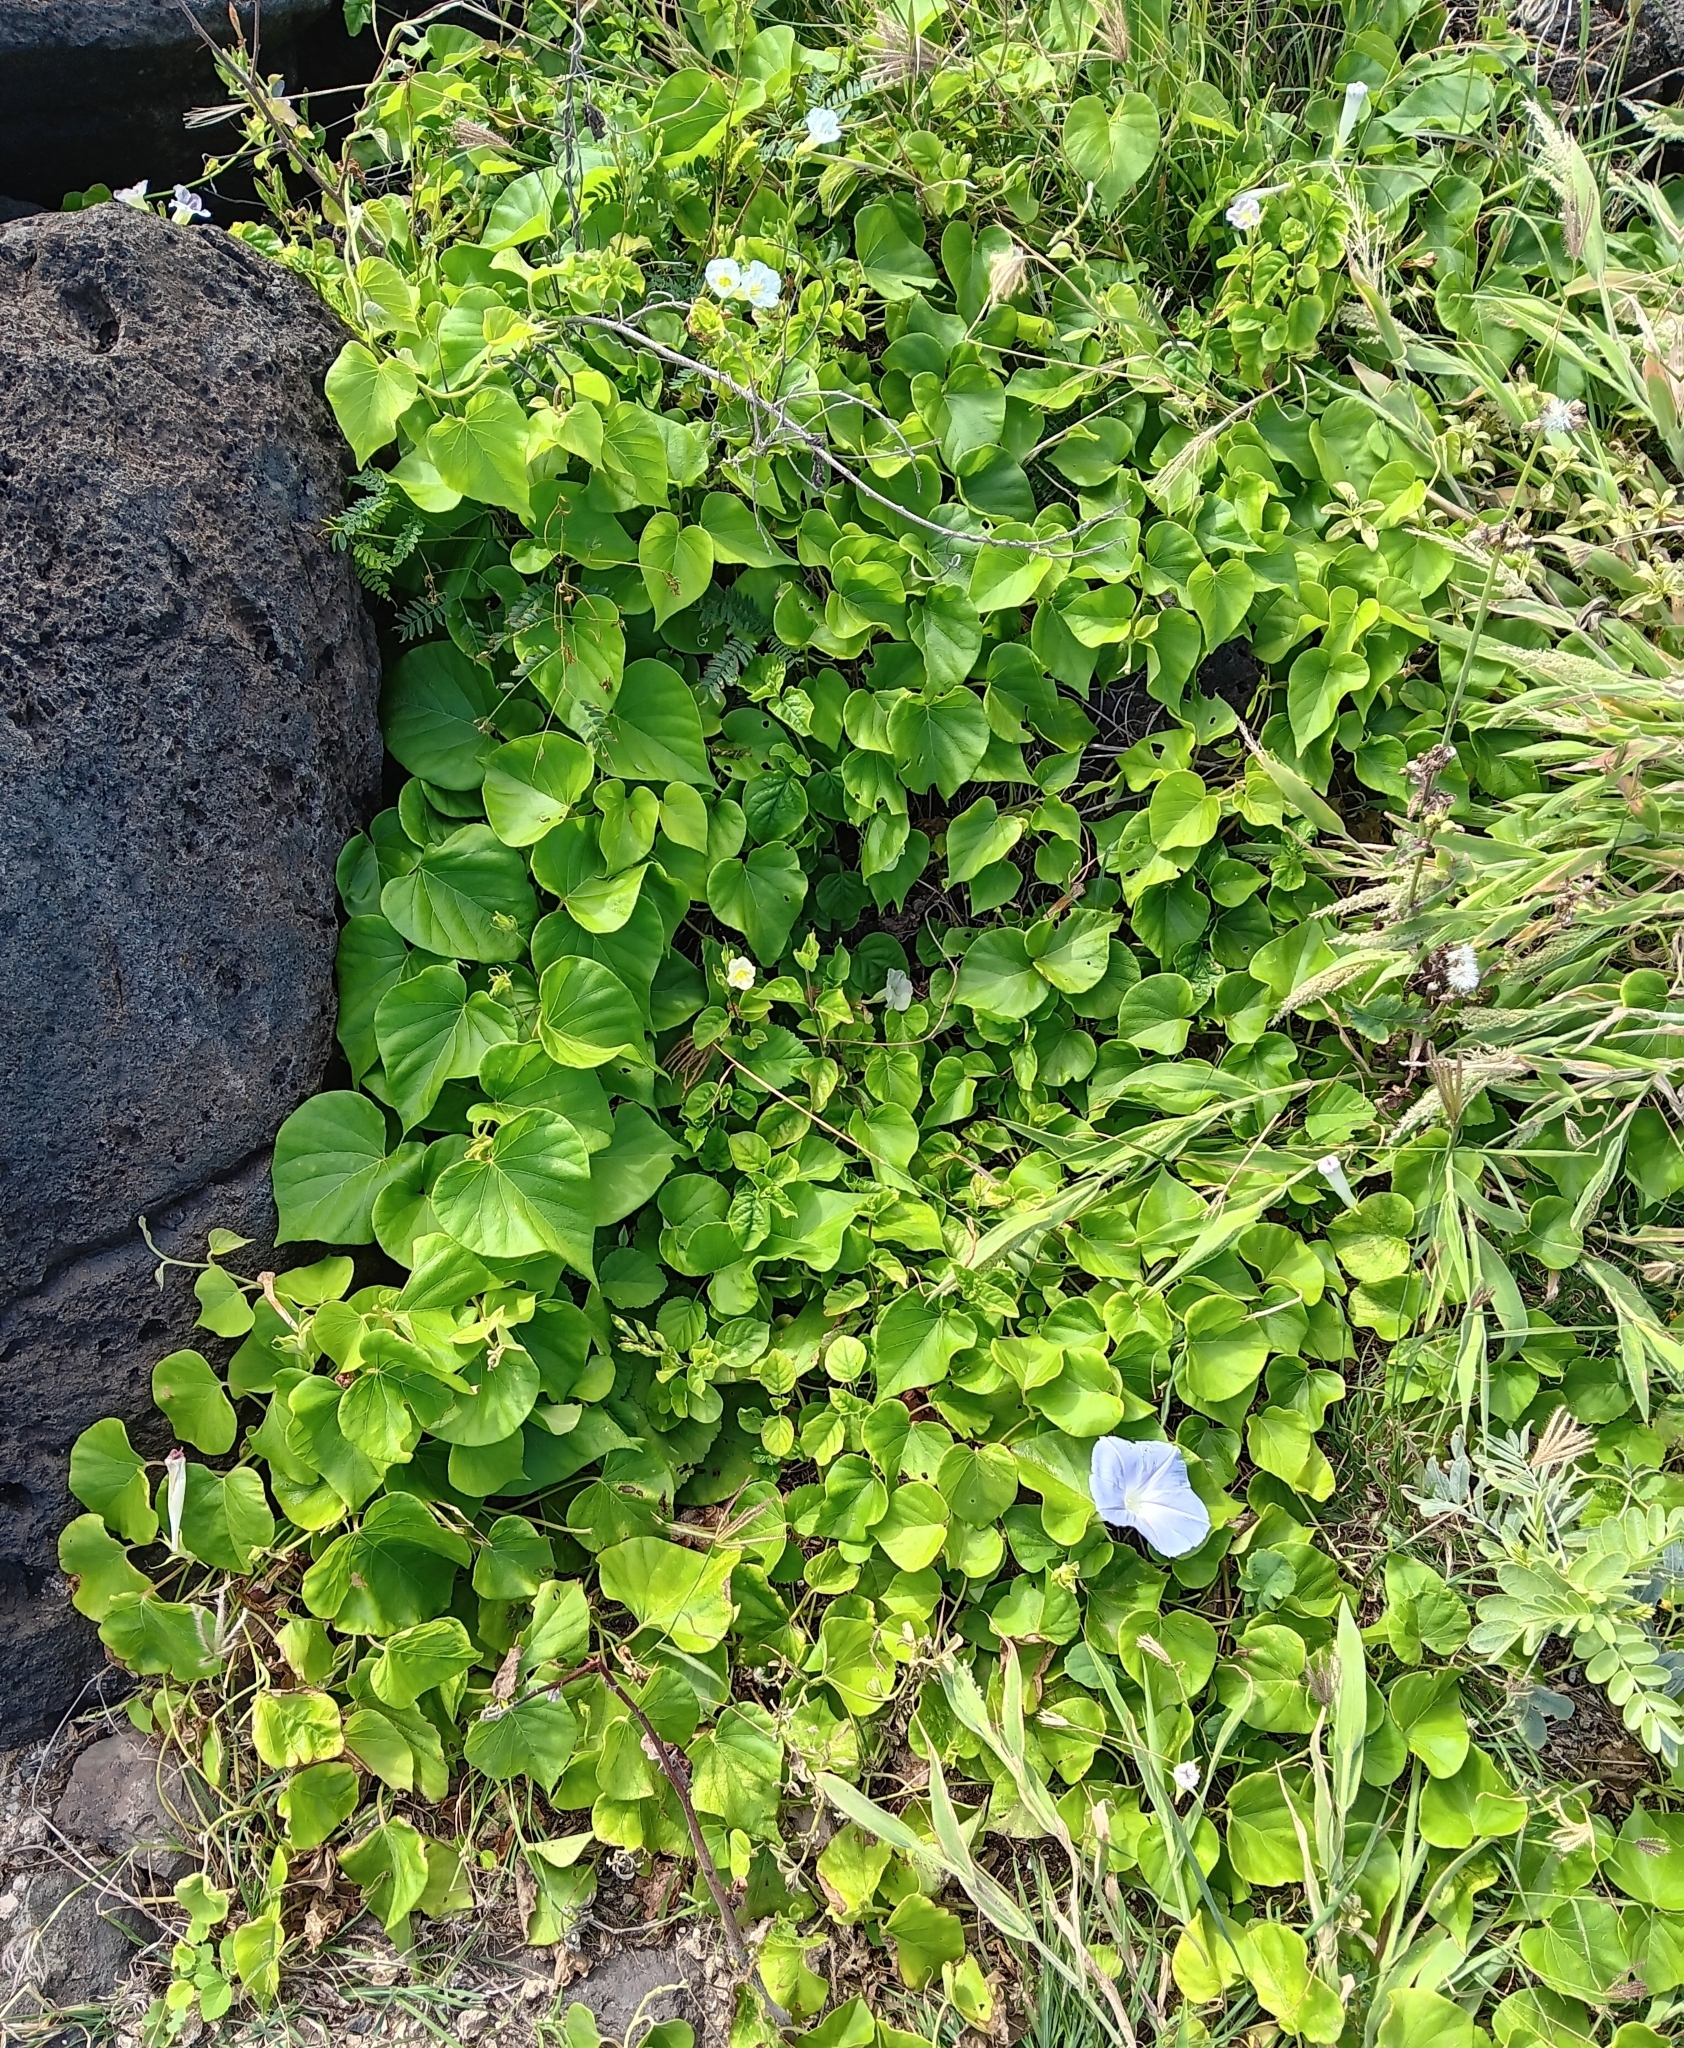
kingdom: Plantae
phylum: Tracheophyta
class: Magnoliopsida
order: Solanales
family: Convolvulaceae
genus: Ipomoea
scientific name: Ipomoea indica
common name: Blue dawnflower
